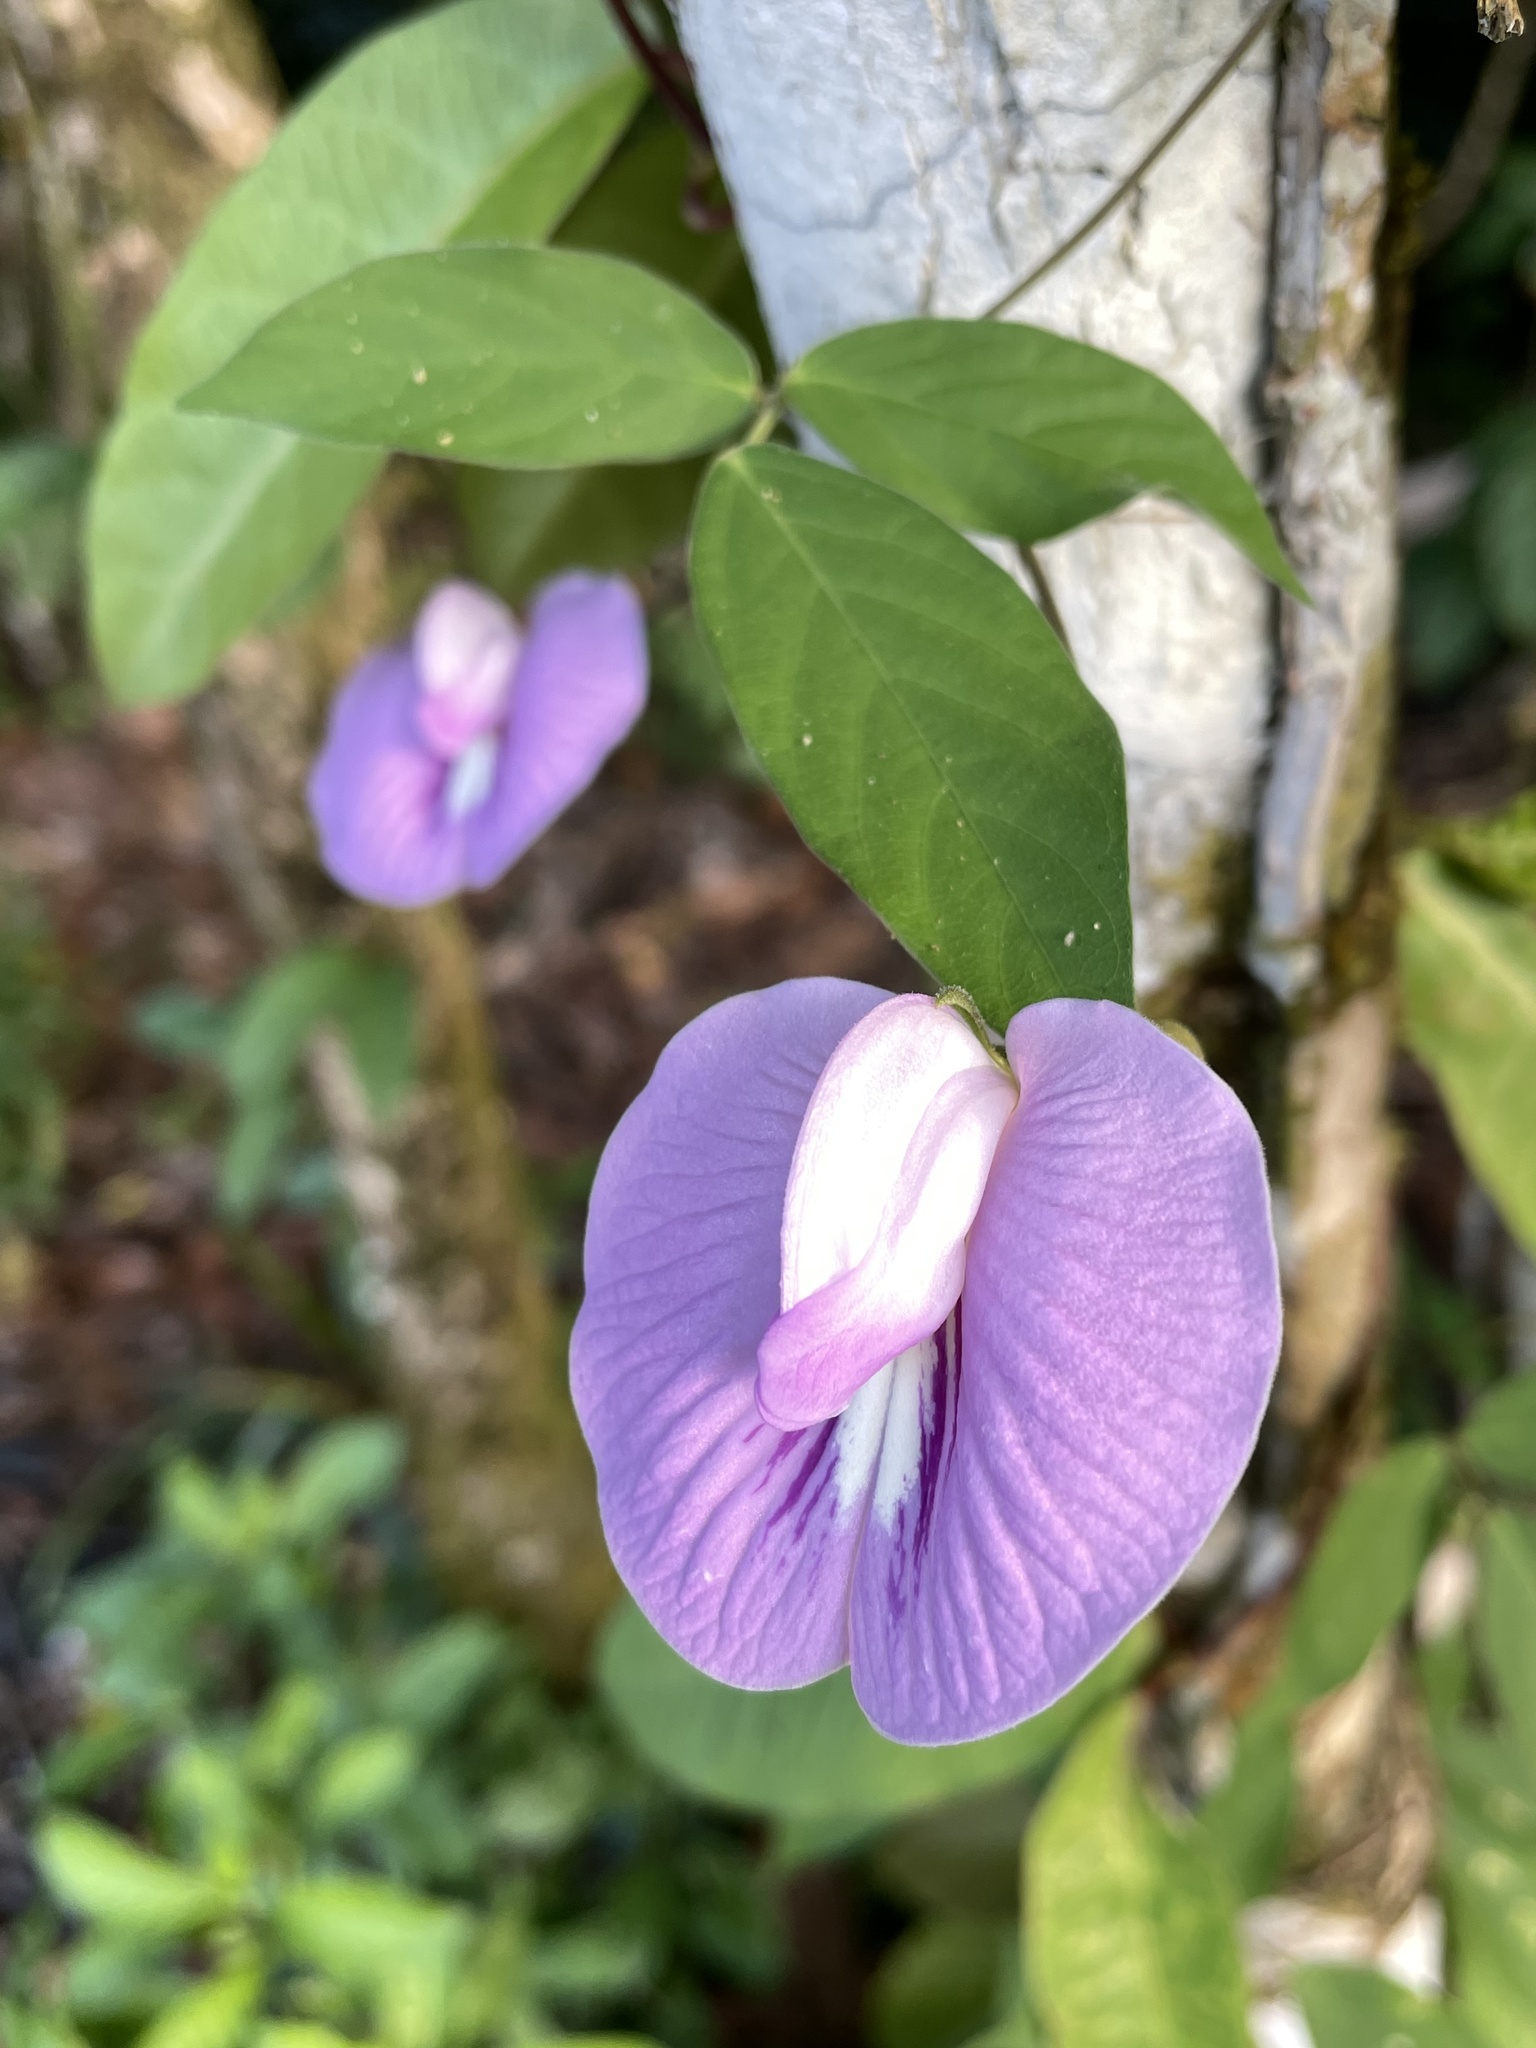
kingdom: Plantae
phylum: Tracheophyta
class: Magnoliopsida
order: Fabales
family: Fabaceae
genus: Centrosema
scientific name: Centrosema virginianum
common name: Butterfly-pea
